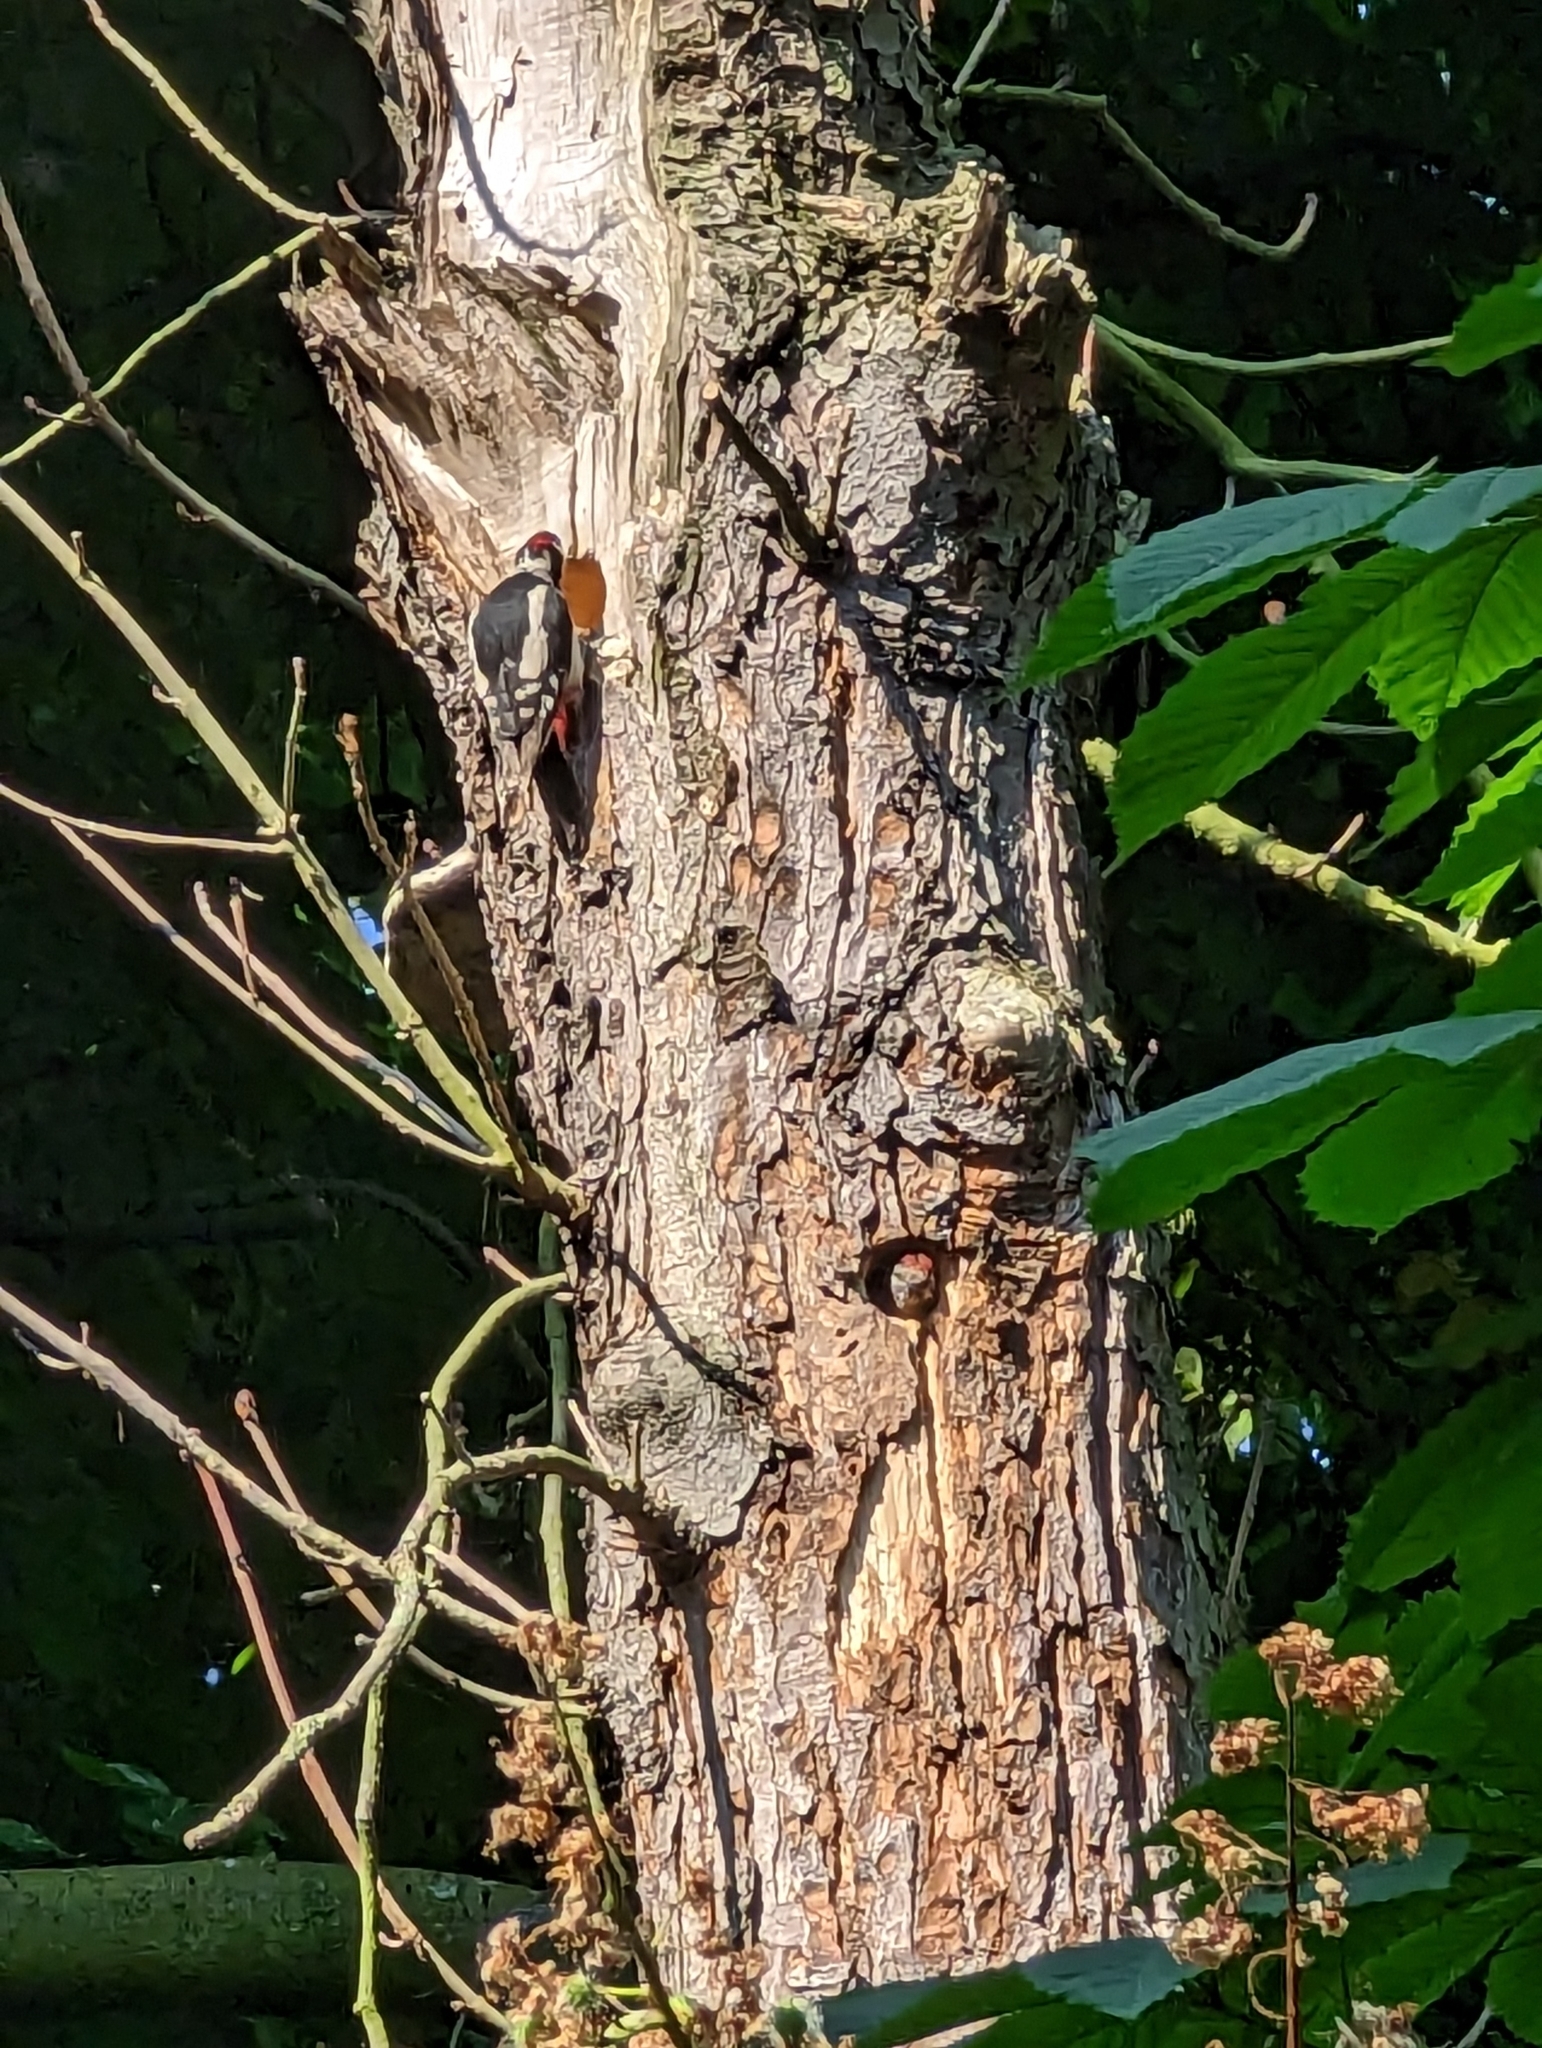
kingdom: Animalia
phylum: Chordata
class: Aves
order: Piciformes
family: Picidae
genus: Dendrocopos
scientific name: Dendrocopos major
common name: Great spotted woodpecker
